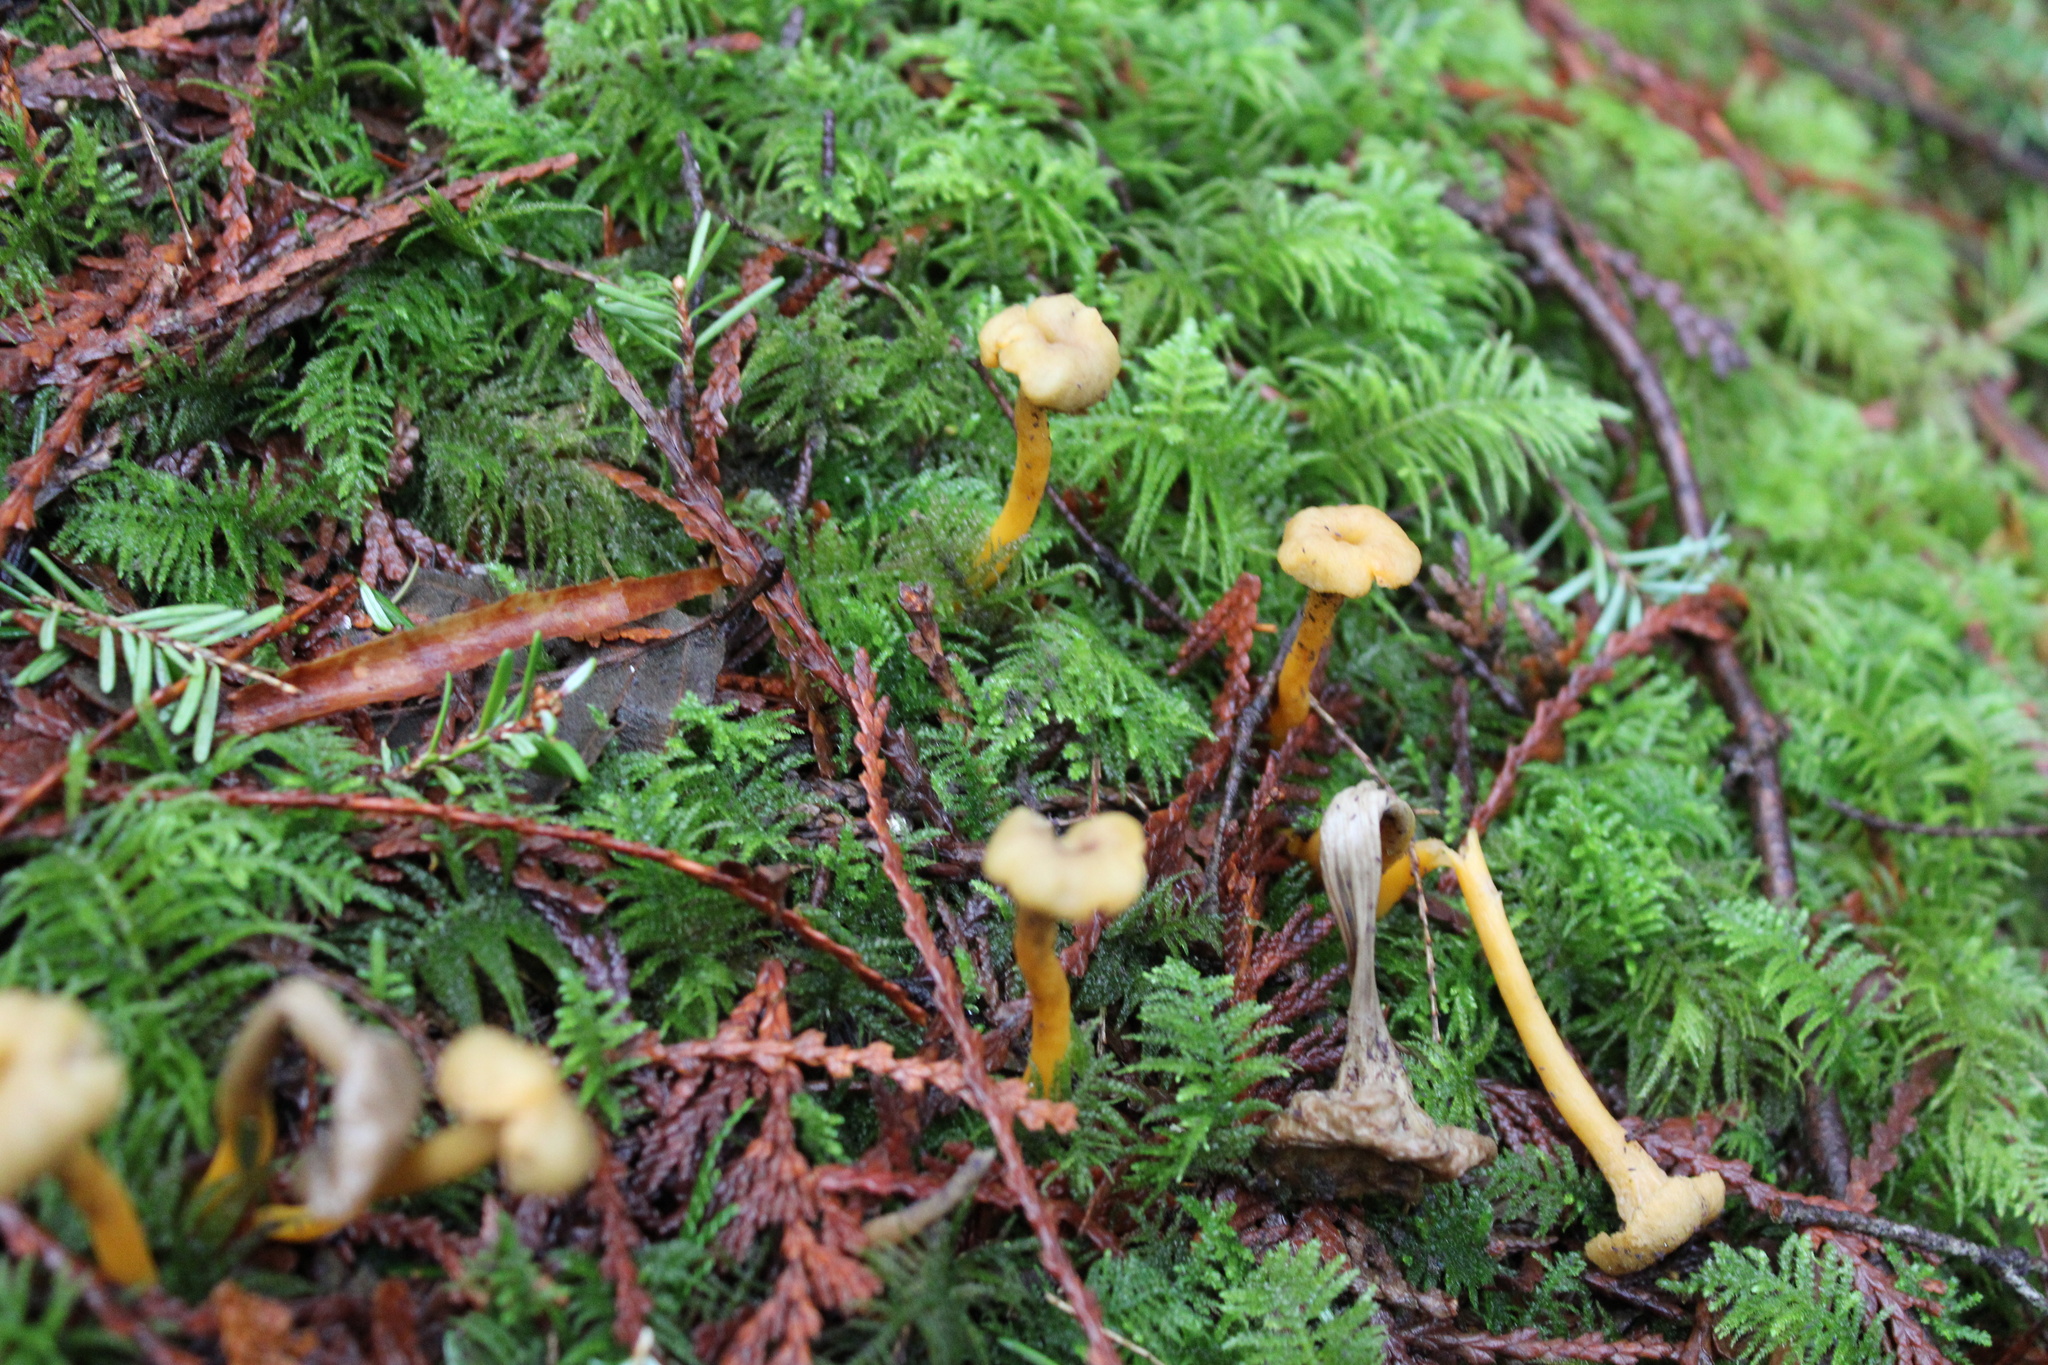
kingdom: Fungi
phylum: Basidiomycota
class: Agaricomycetes
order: Cantharellales
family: Hydnaceae
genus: Craterellus
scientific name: Craterellus tubaeformis
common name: Yellowfoot
